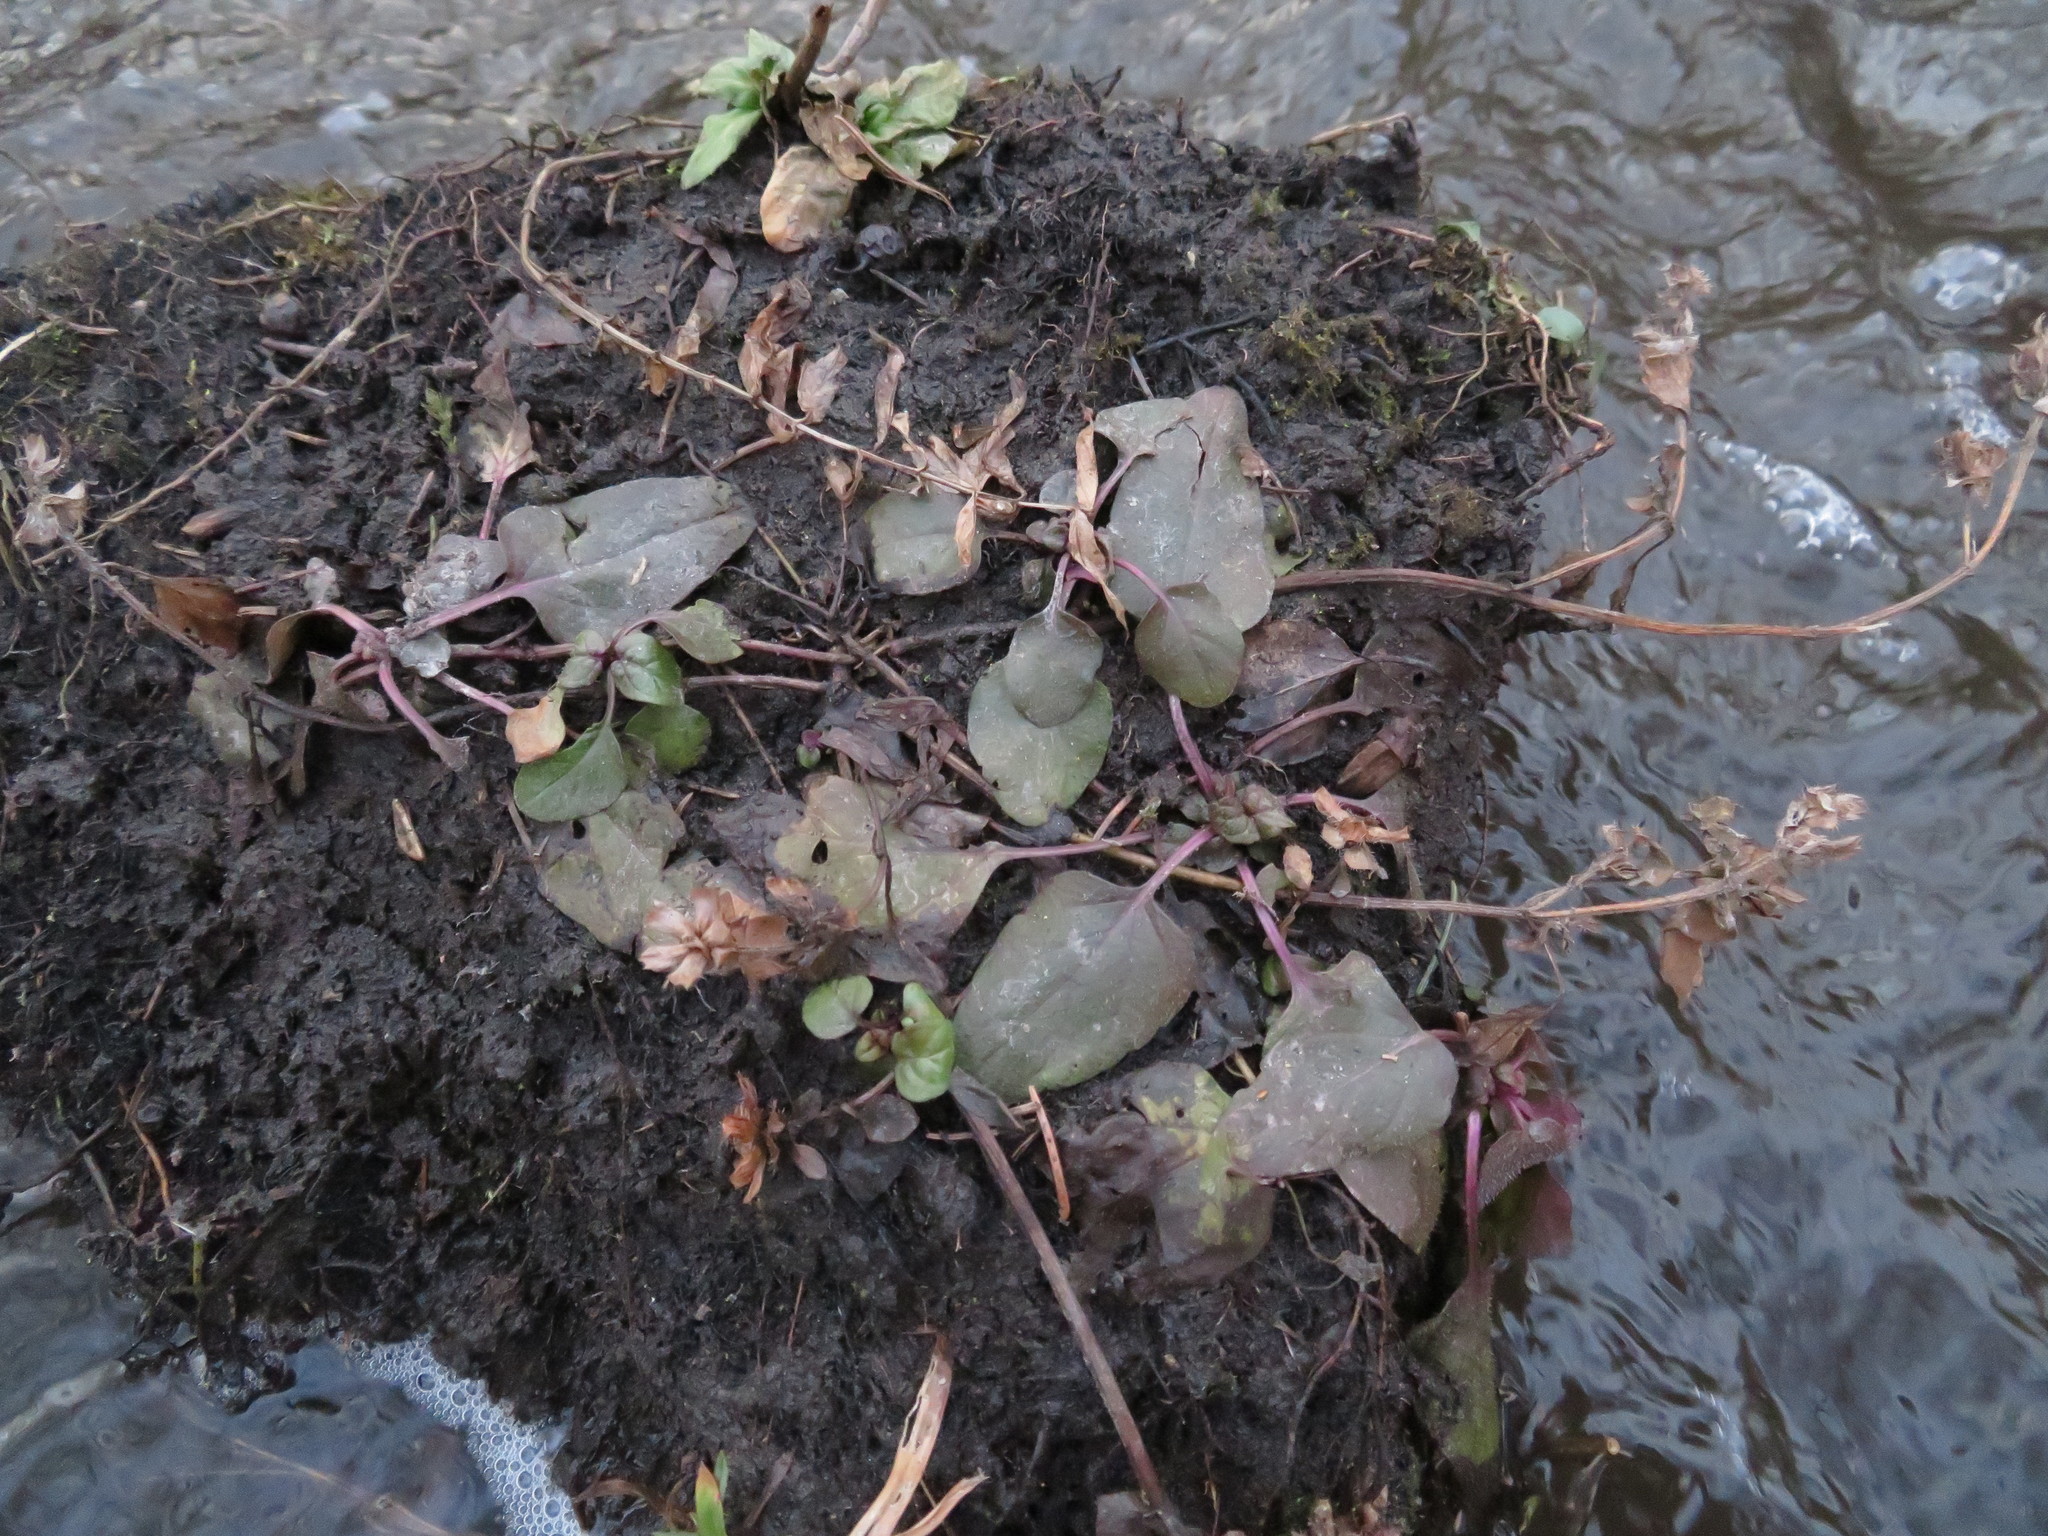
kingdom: Plantae
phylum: Tracheophyta
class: Magnoliopsida
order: Lamiales
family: Lamiaceae
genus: Prunella
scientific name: Prunella vulgaris
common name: Heal-all
